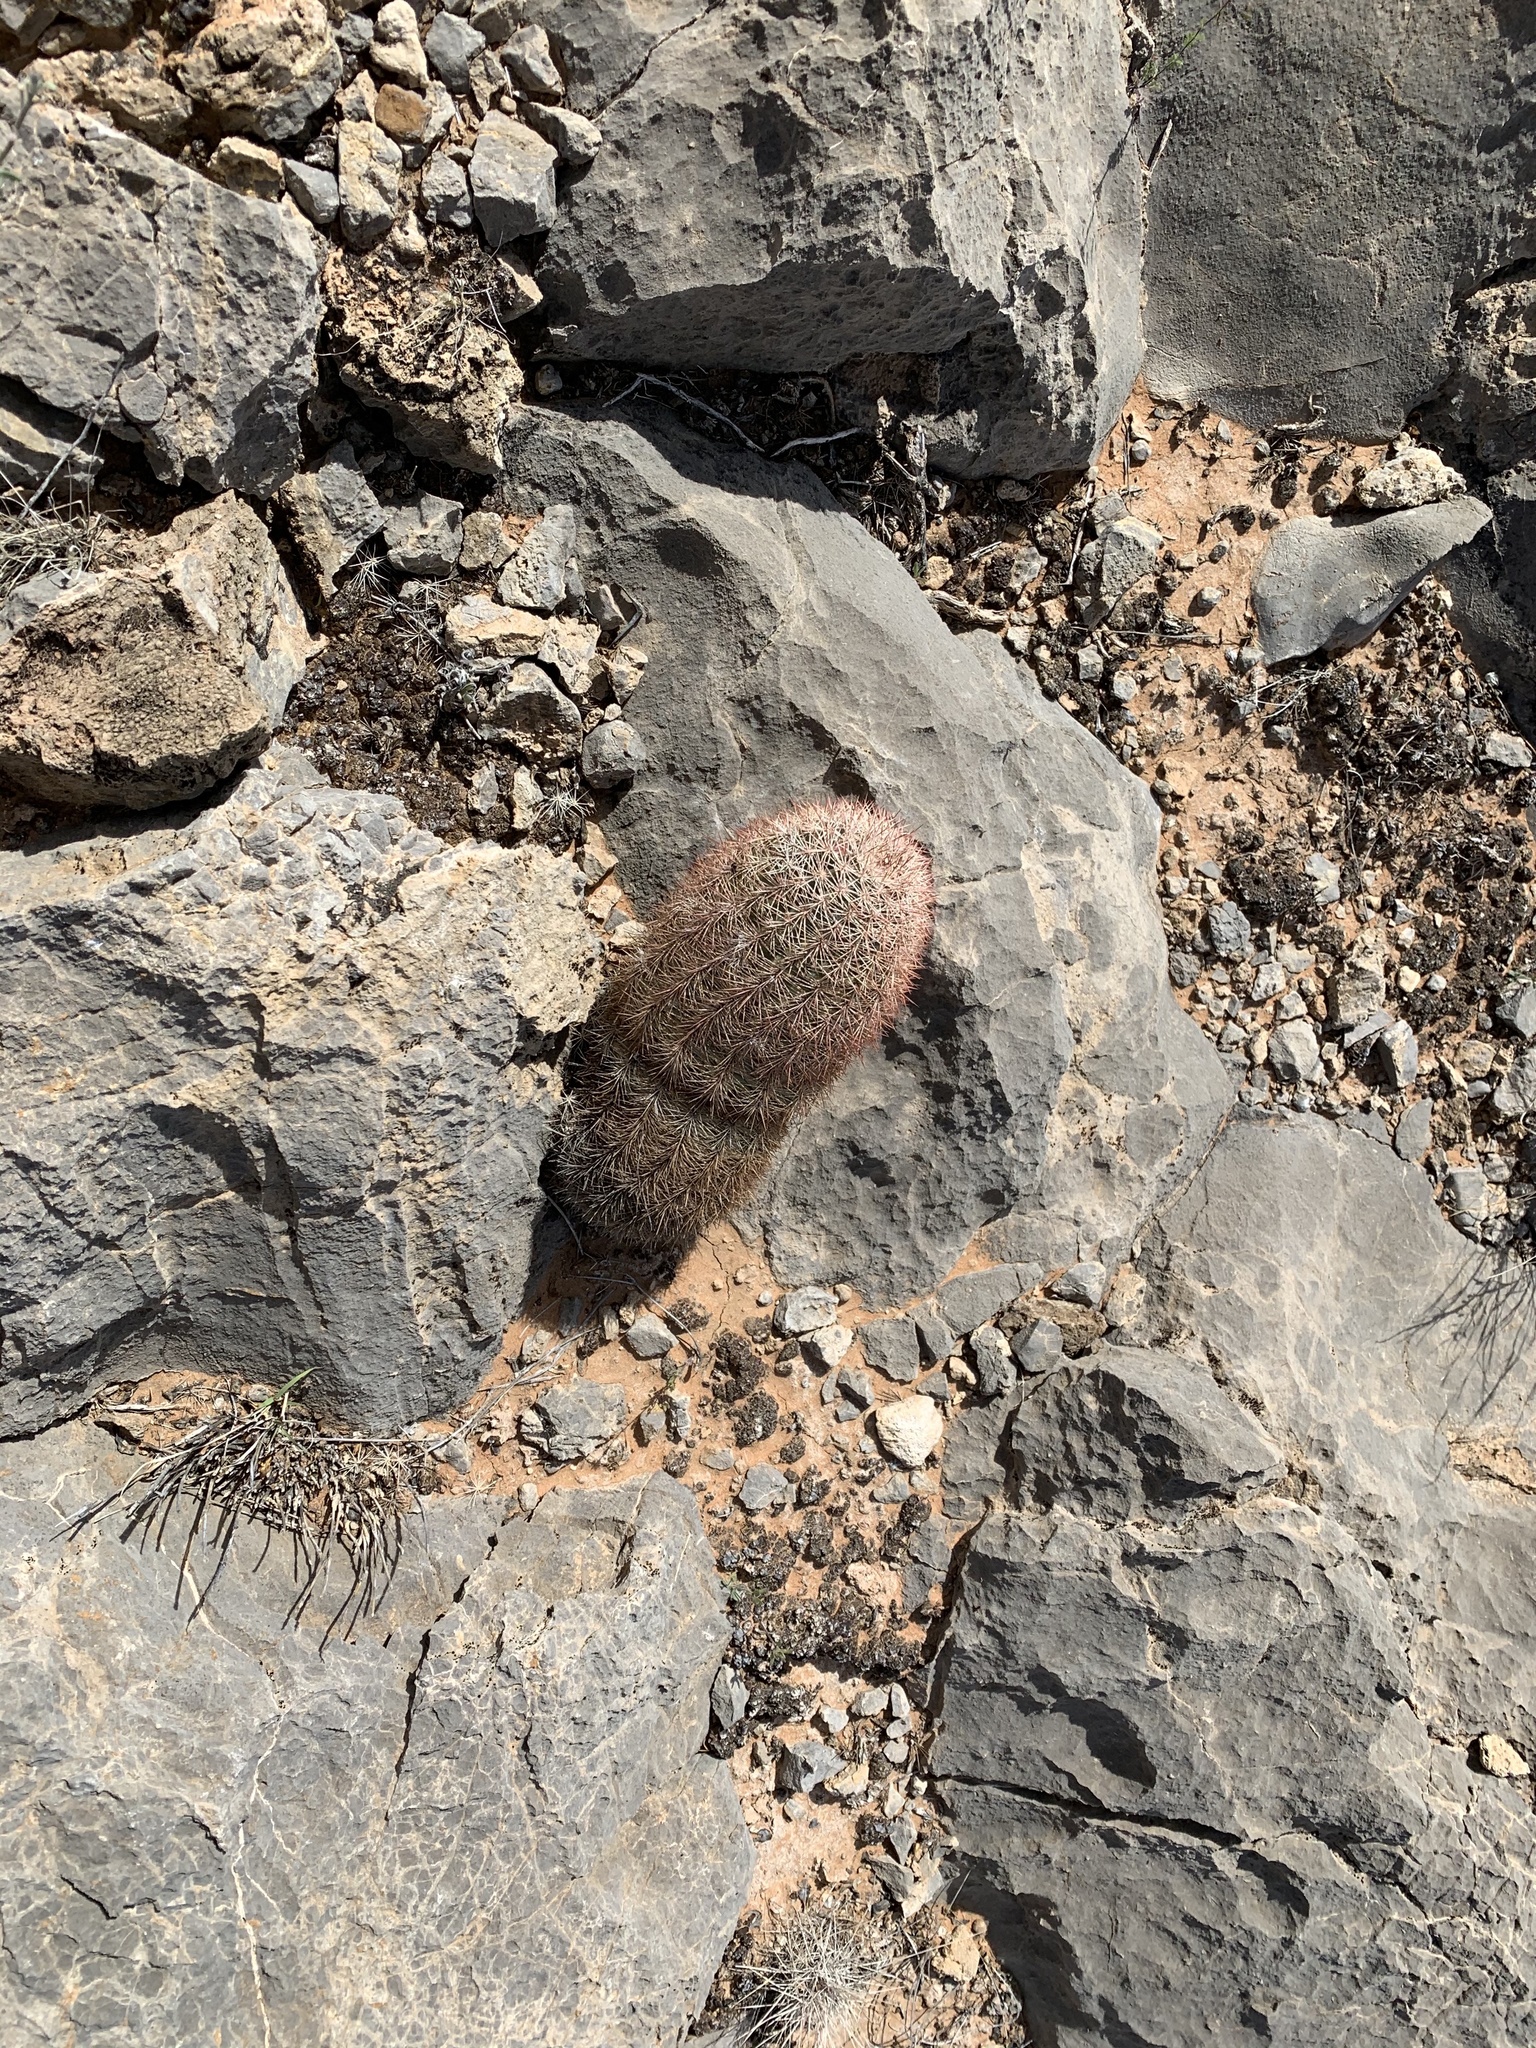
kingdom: Plantae
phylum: Tracheophyta
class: Magnoliopsida
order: Caryophyllales
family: Cactaceae
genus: Echinocereus
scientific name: Echinocereus dasyacanthus
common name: Spiny hedgehog cactus
